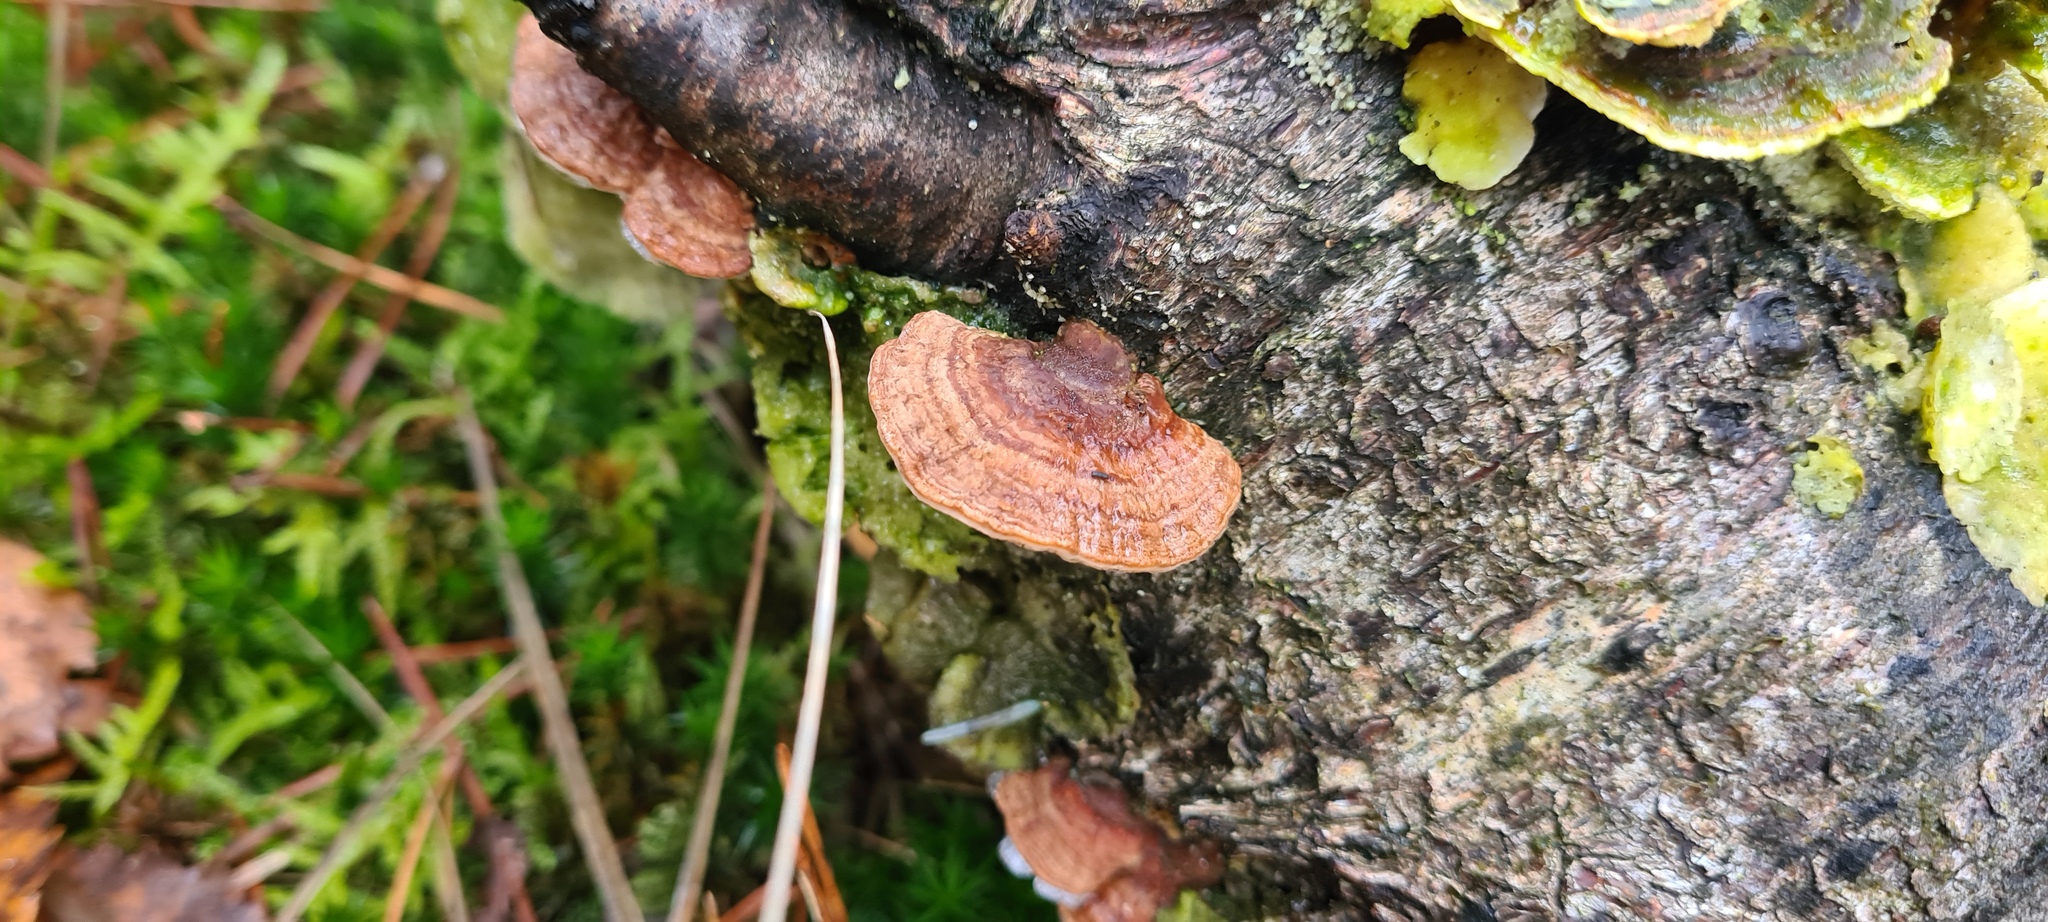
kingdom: Fungi
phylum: Basidiomycota
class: Agaricomycetes
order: Polyporales
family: Polyporaceae
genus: Daedaleopsis
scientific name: Daedaleopsis confragosa
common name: Blushing bracket
